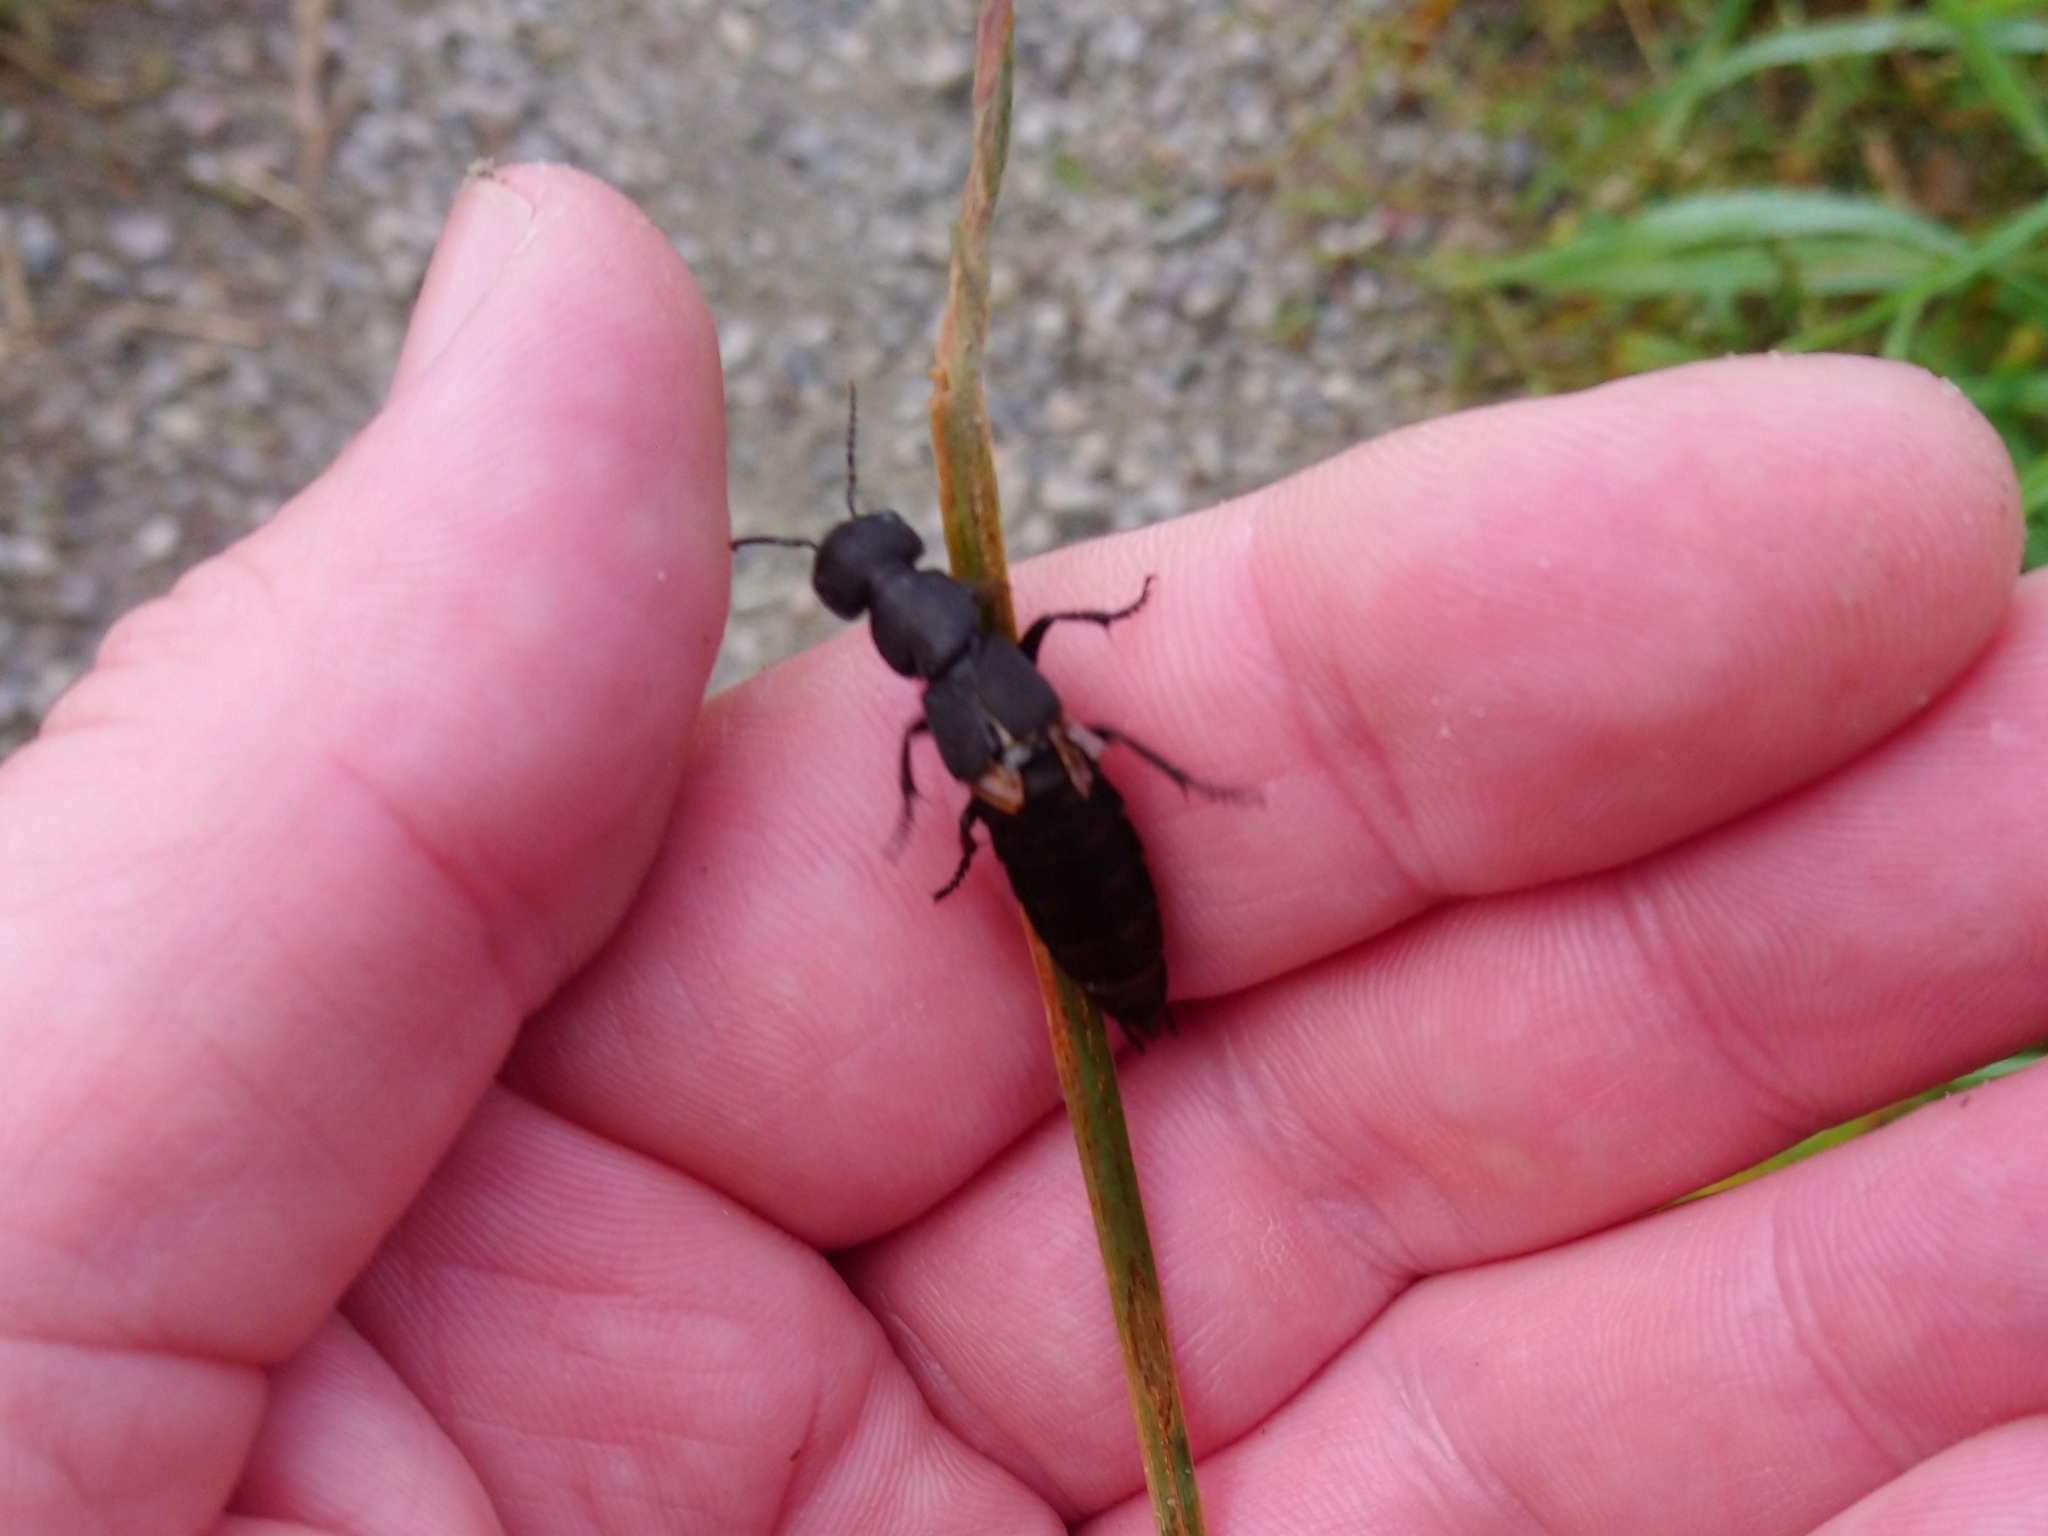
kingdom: Animalia
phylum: Arthropoda
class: Insecta
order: Coleoptera
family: Staphylinidae
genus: Ocypus
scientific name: Ocypus olens
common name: Devil's coach-horse
